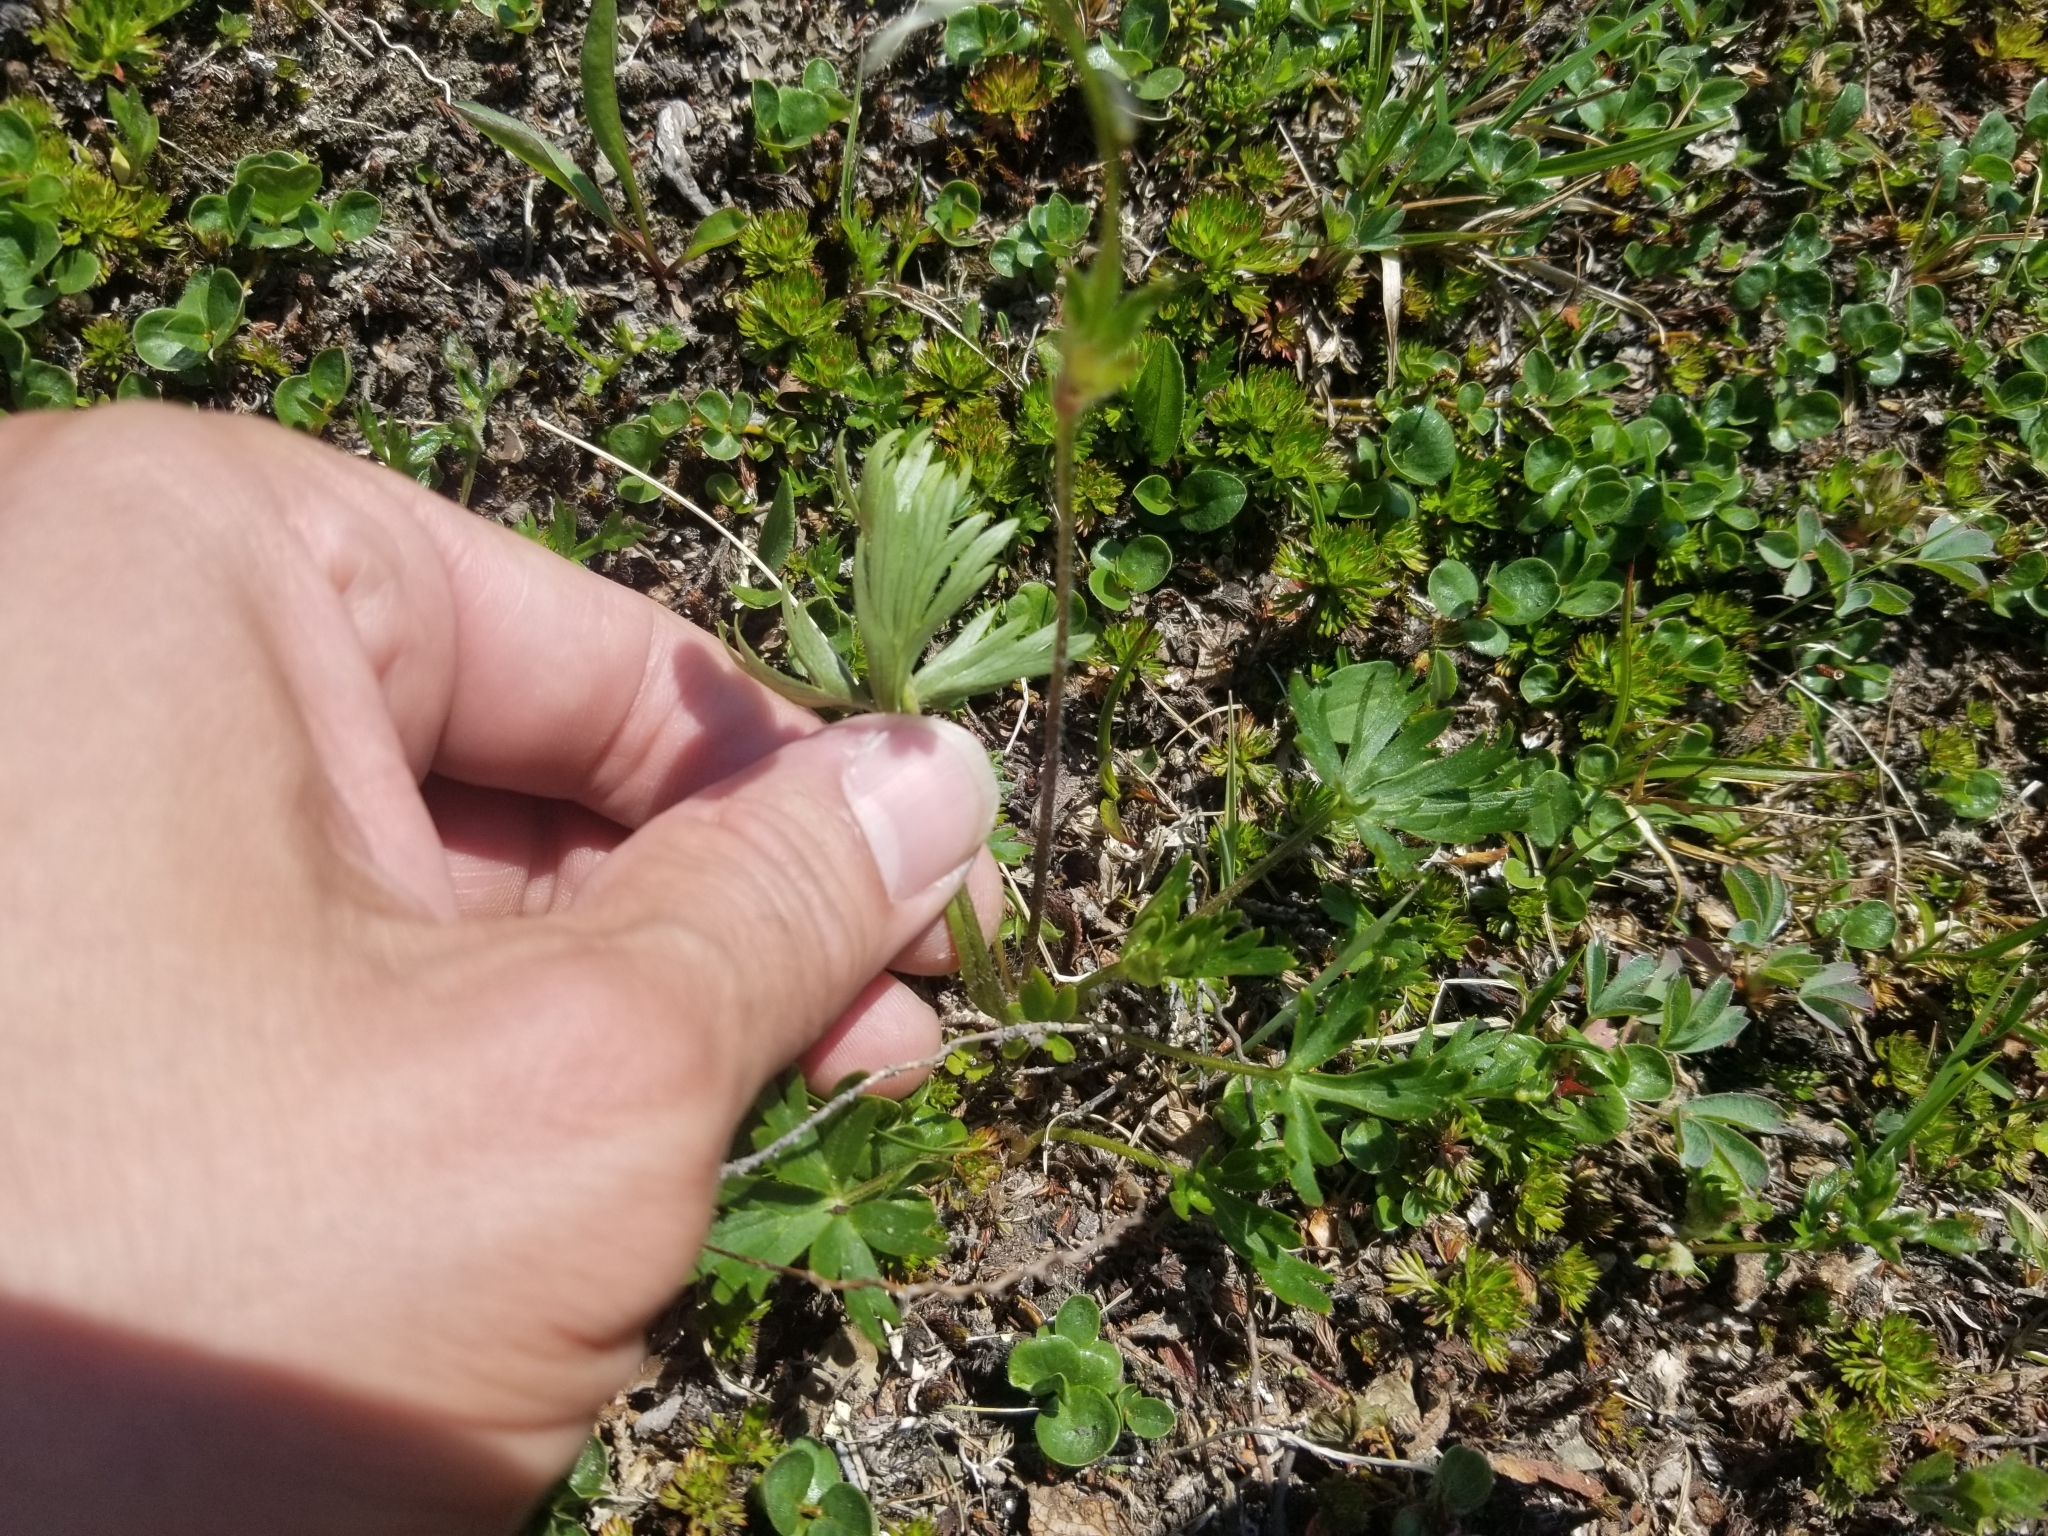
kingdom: Plantae
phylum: Tracheophyta
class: Magnoliopsida
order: Ranunculales
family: Ranunculaceae
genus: Anemonastrum
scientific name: Anemonastrum narcissiflorum
